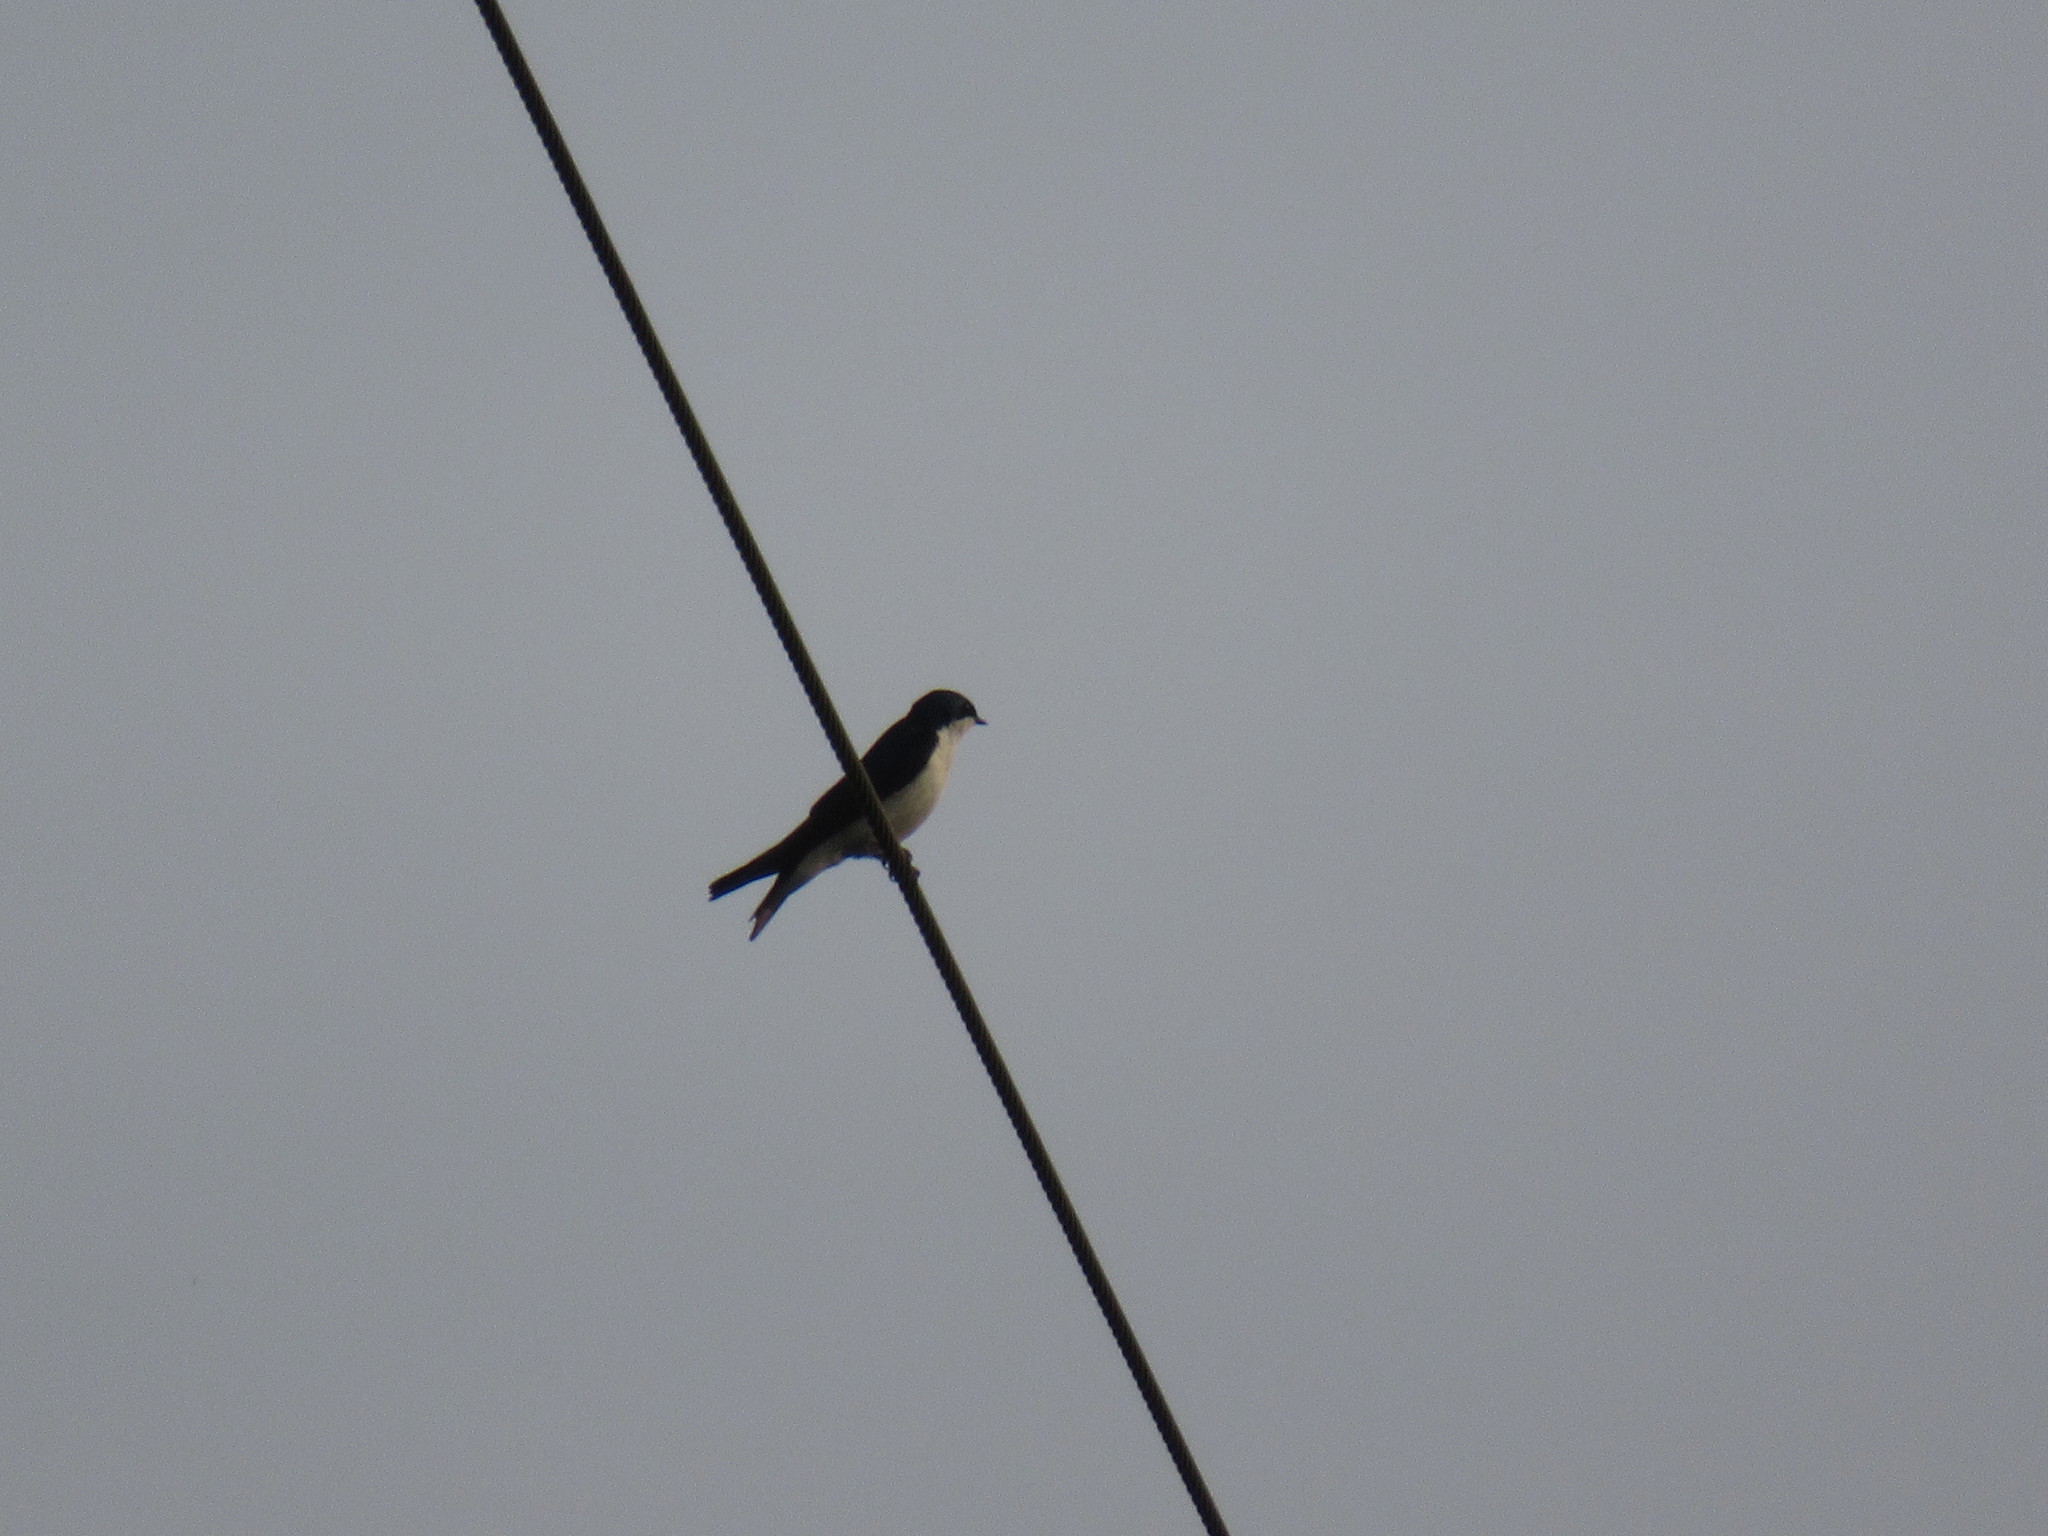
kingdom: Animalia
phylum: Chordata
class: Aves
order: Passeriformes
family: Hirundinidae
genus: Tachycineta
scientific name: Tachycineta bicolor
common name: Tree swallow
